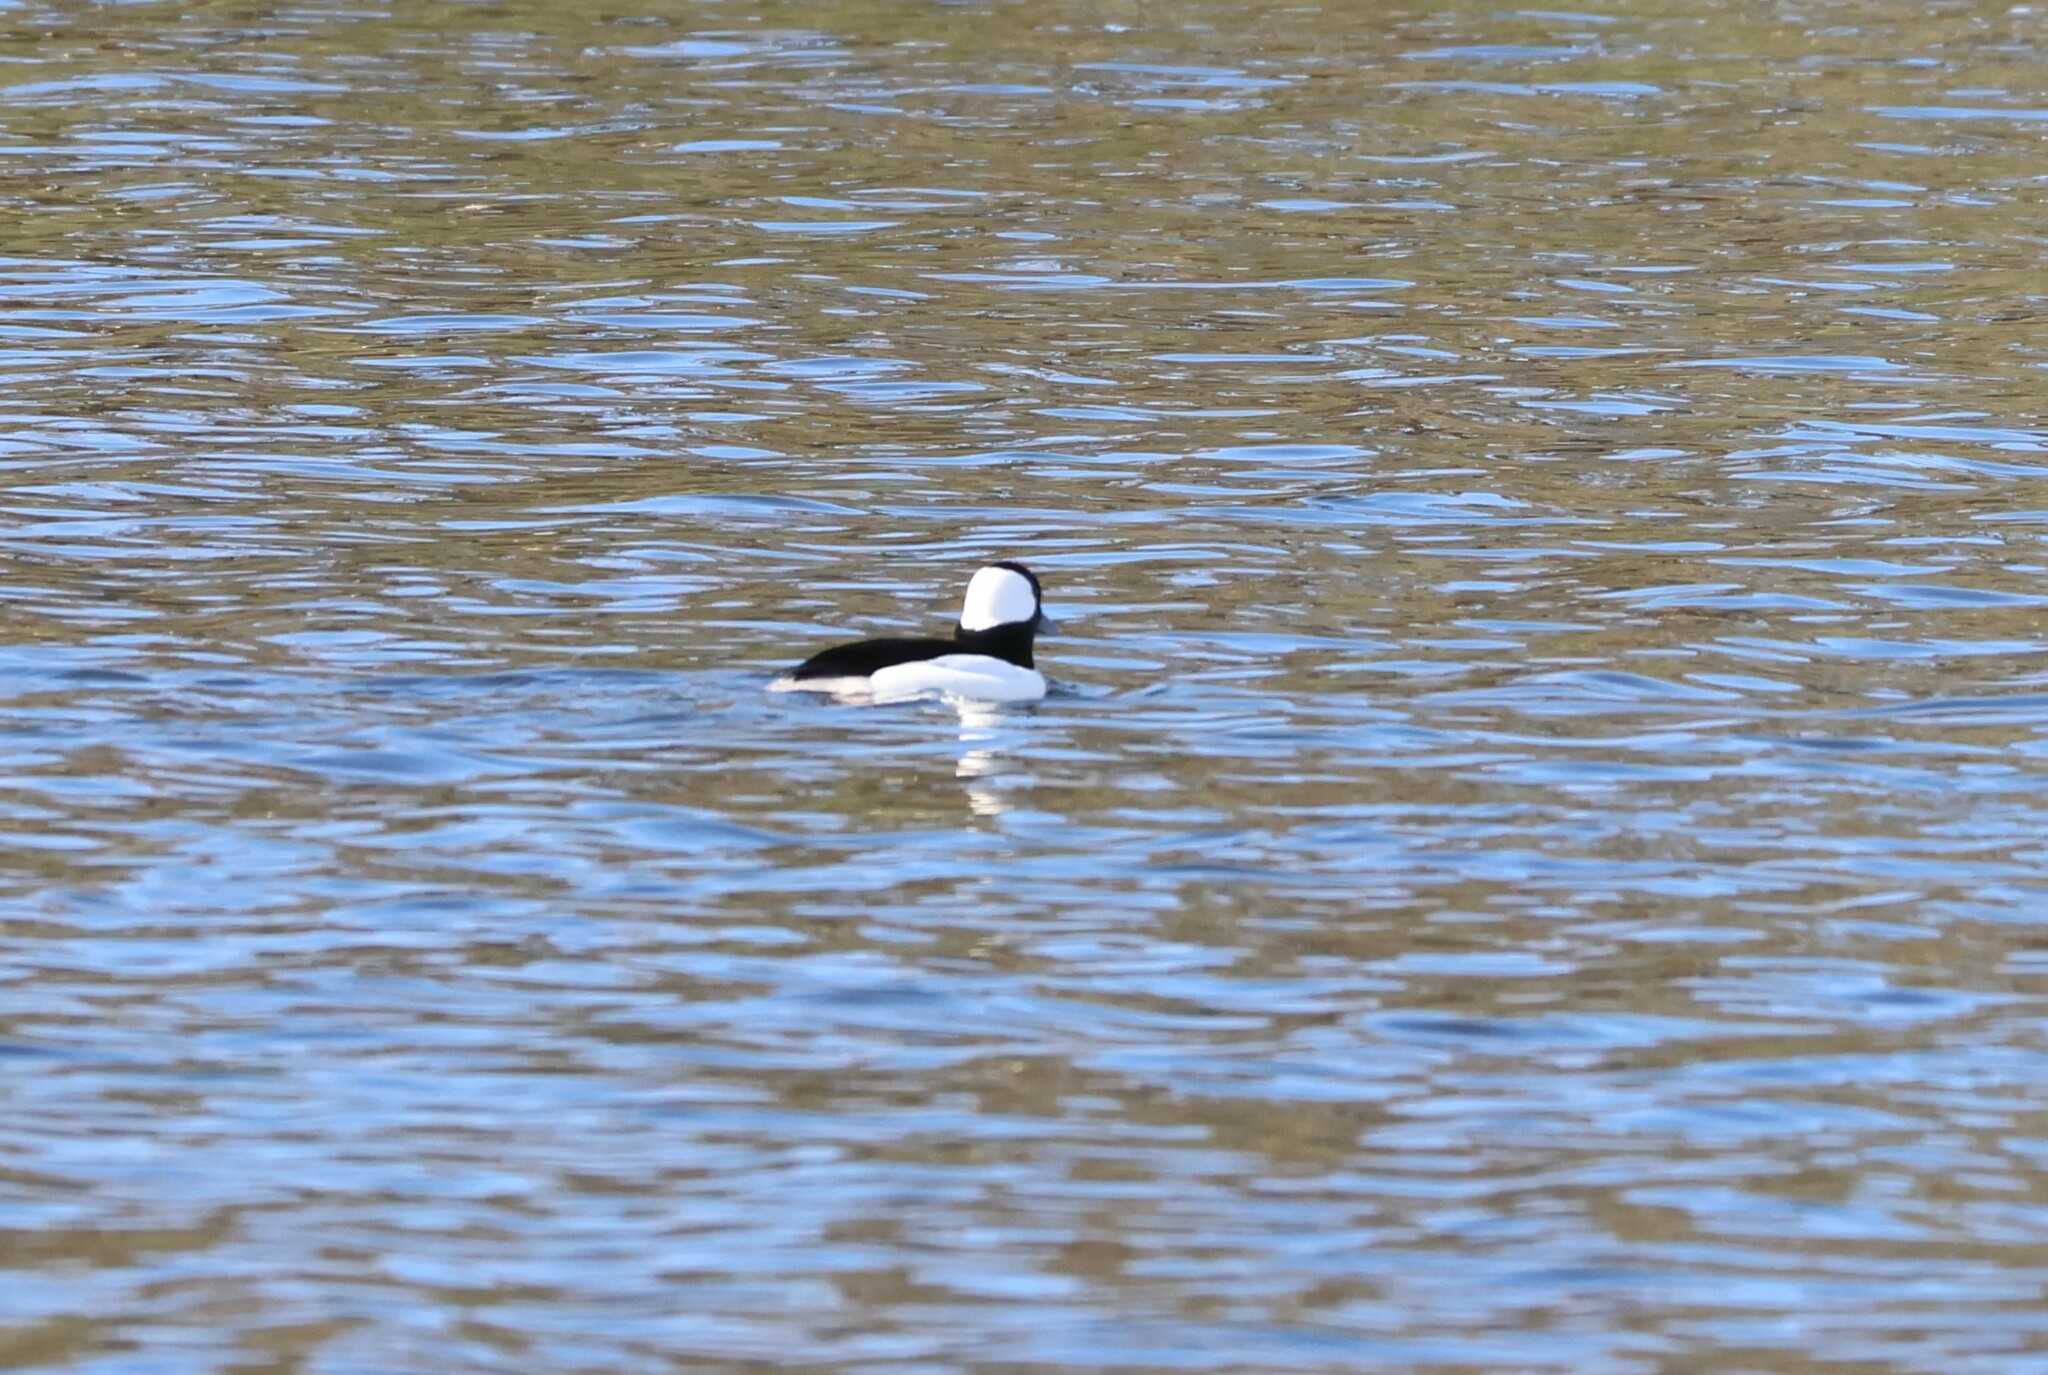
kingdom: Animalia
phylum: Chordata
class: Aves
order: Anseriformes
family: Anatidae
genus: Bucephala
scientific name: Bucephala albeola
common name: Bufflehead
